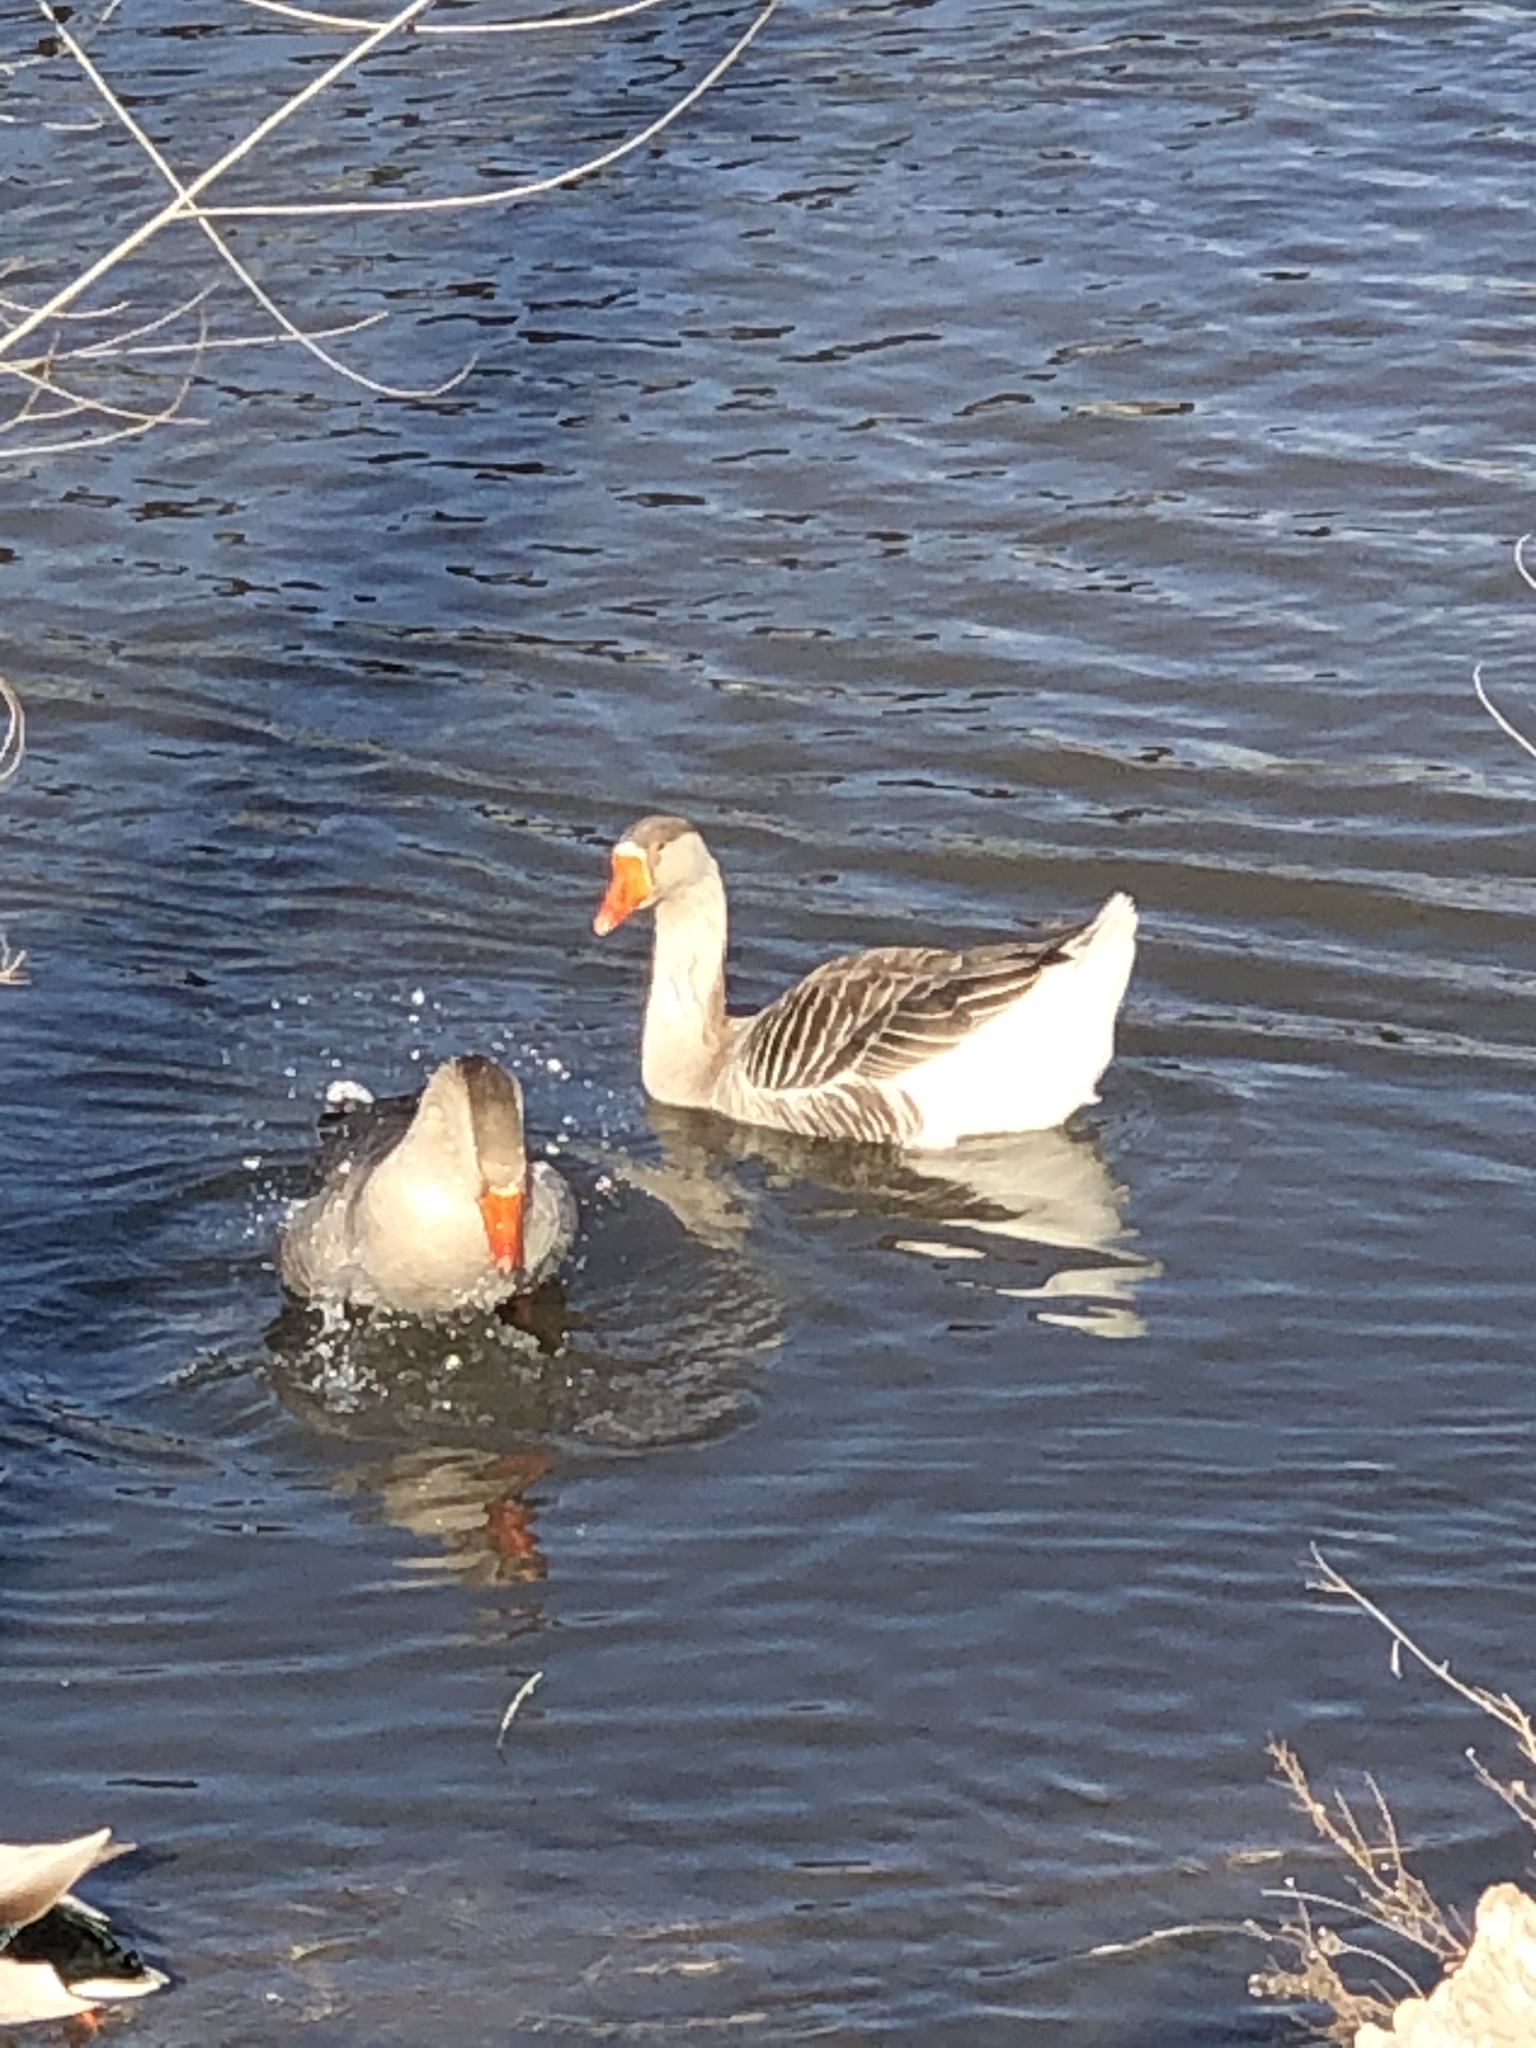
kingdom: Animalia
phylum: Chordata
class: Aves
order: Anseriformes
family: Anatidae
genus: Anser
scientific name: Anser anser
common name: Greylag goose
